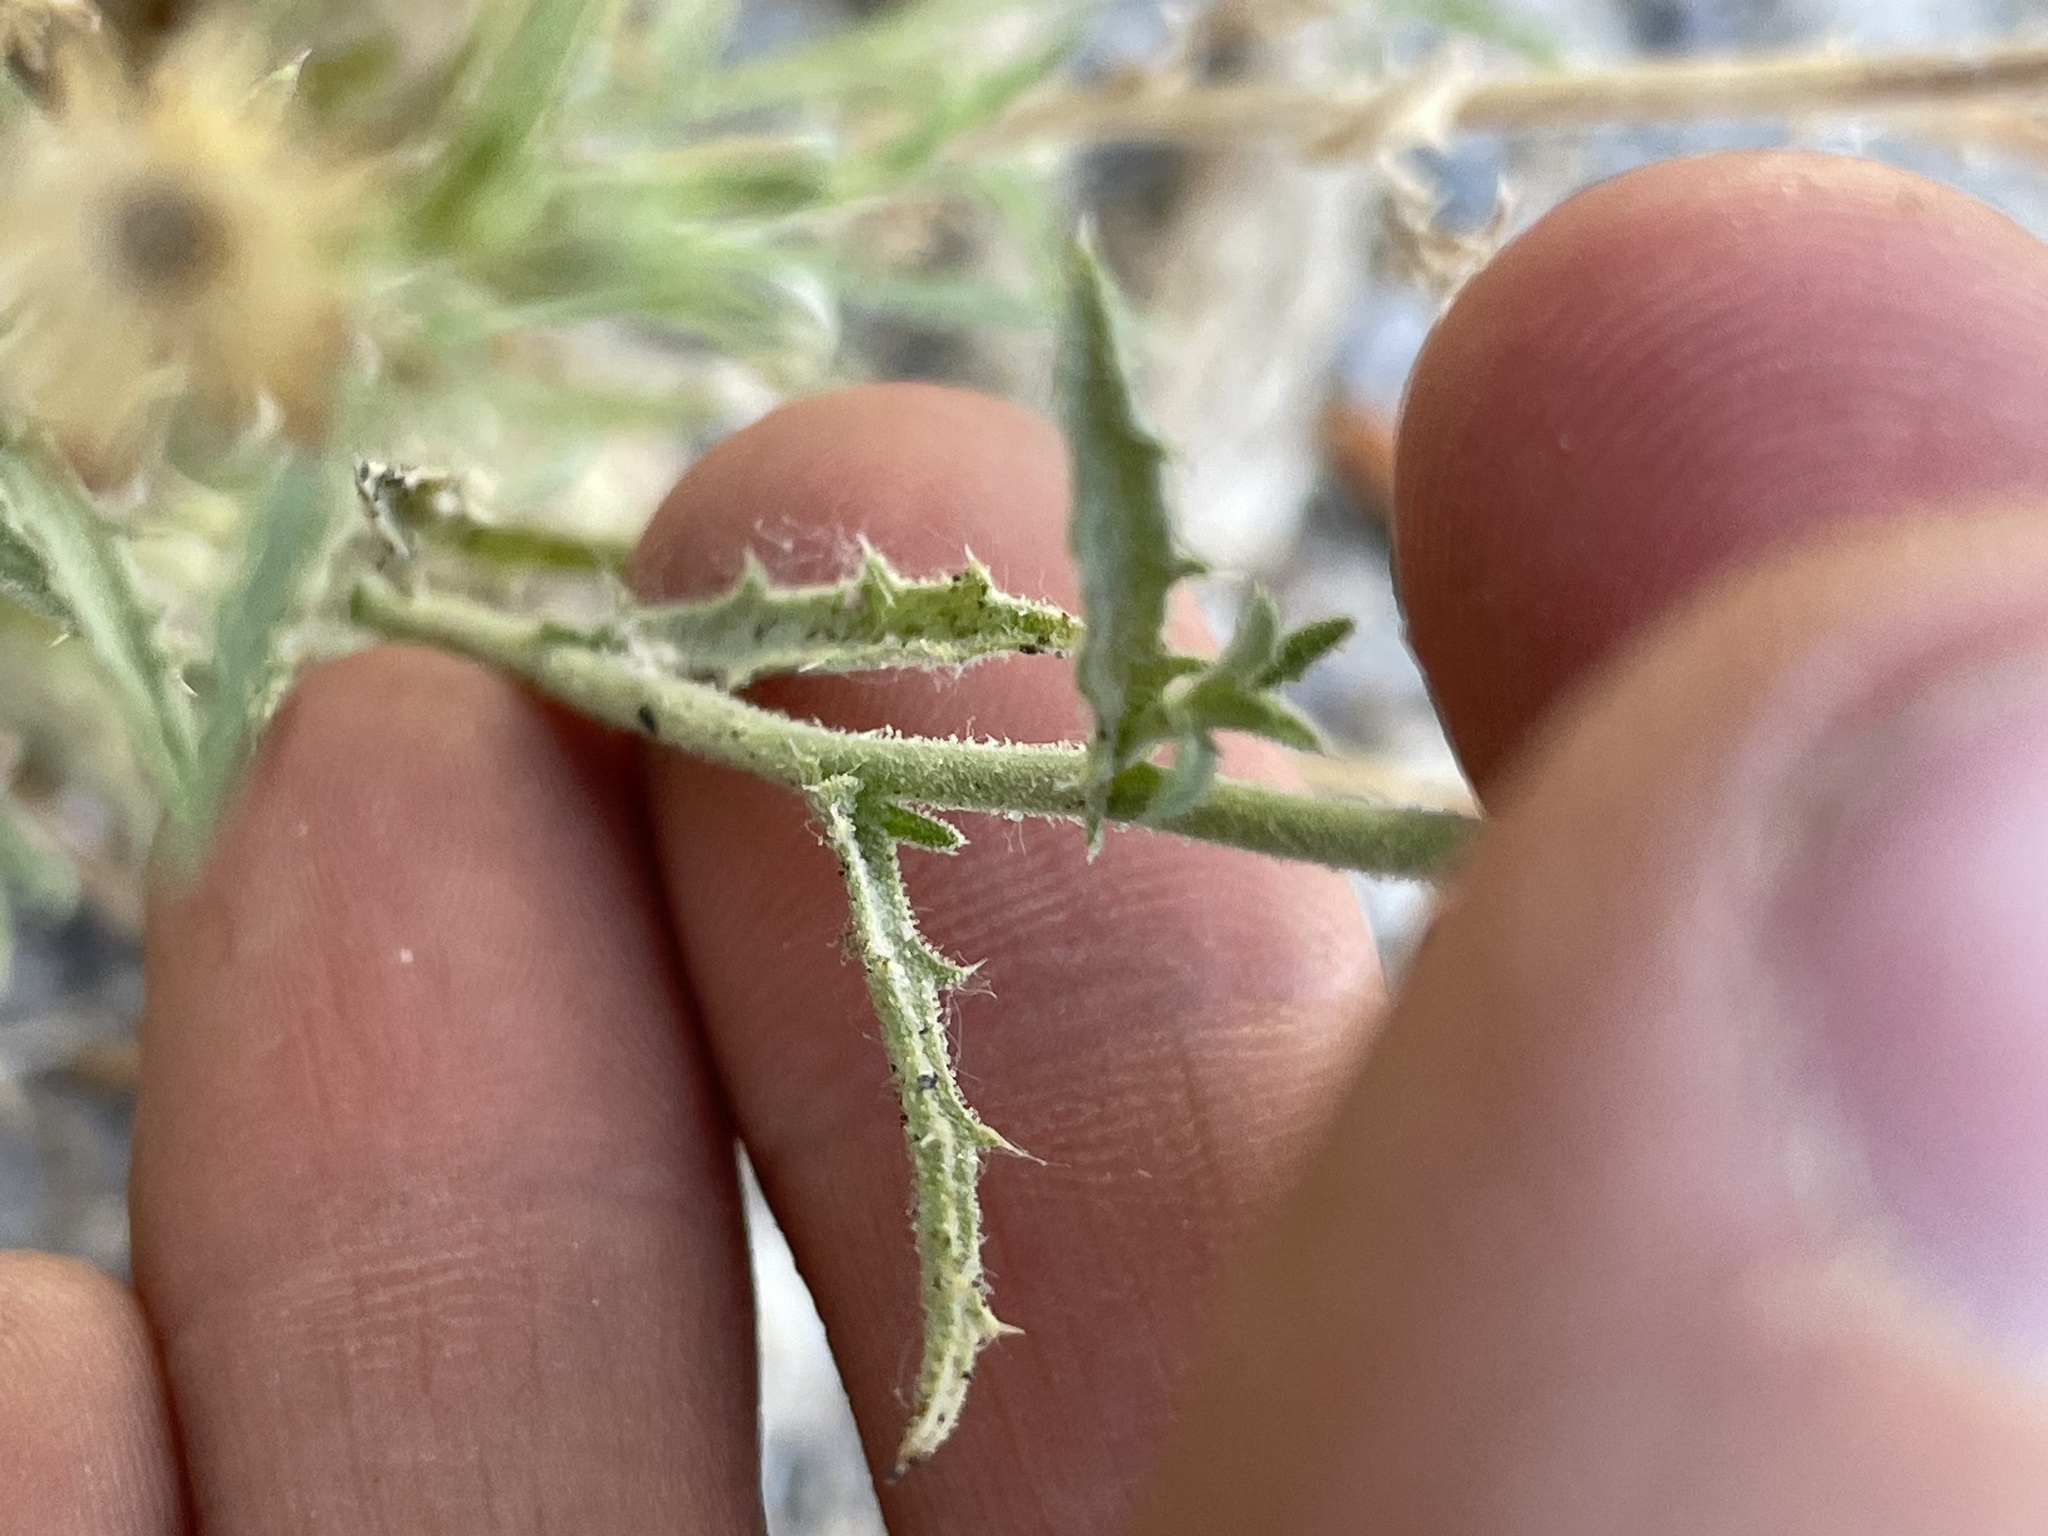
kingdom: Plantae
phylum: Tracheophyta
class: Magnoliopsida
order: Asterales
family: Asteraceae
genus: Dieteria
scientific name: Dieteria canescens
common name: Hoary-aster
